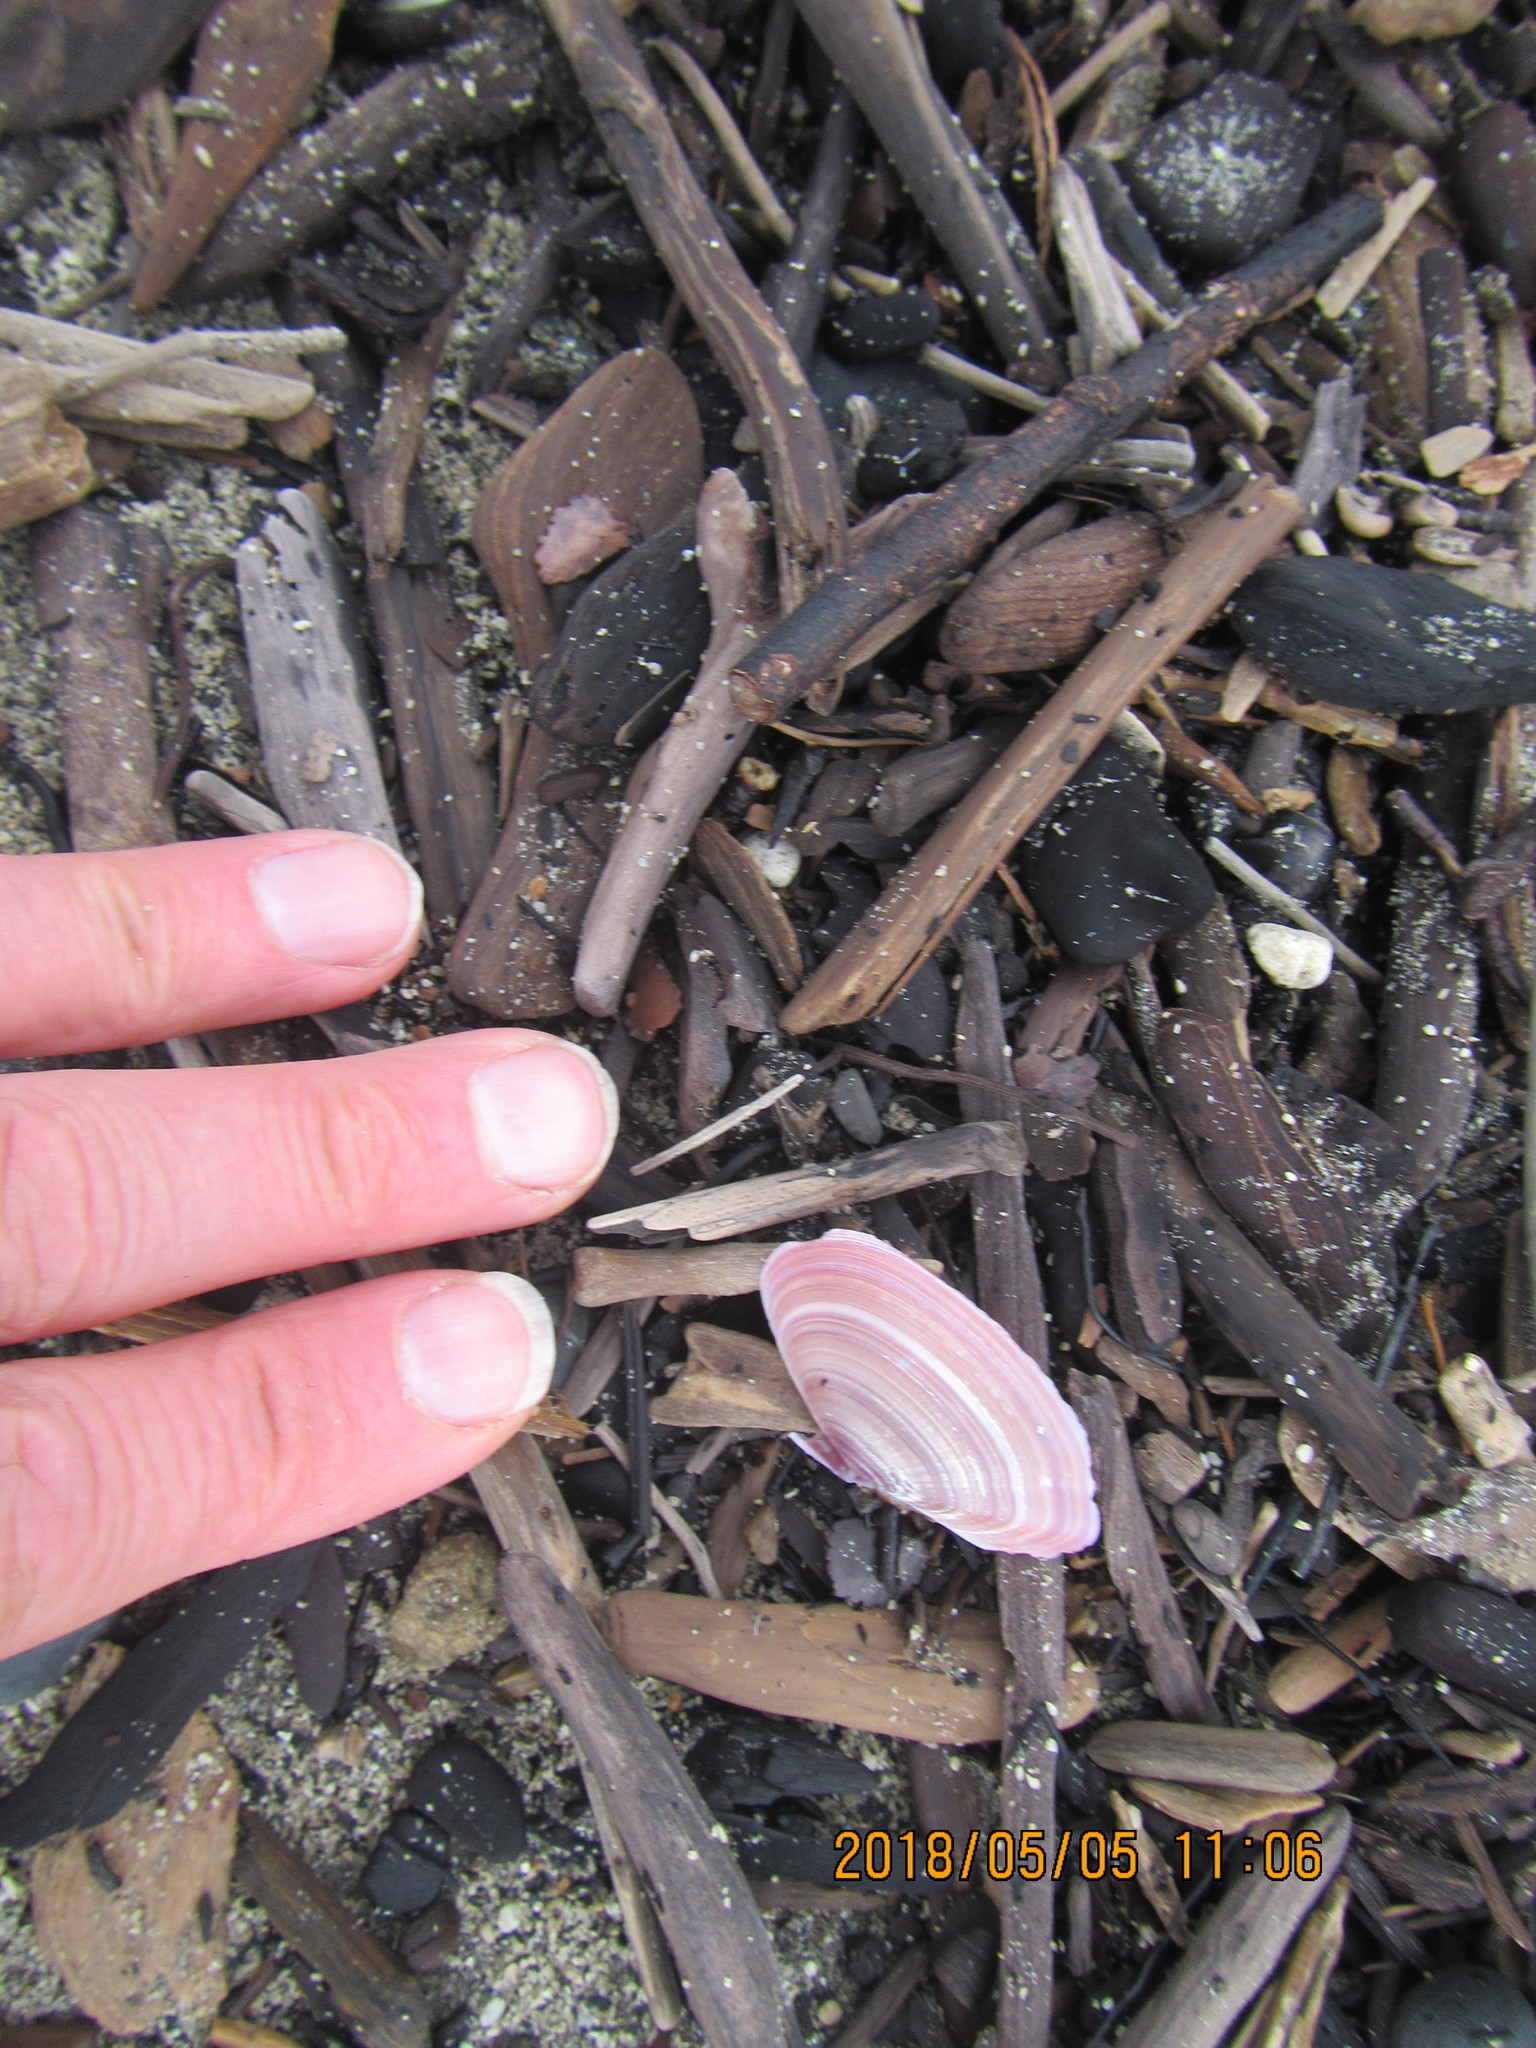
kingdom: Animalia
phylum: Mollusca
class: Bivalvia
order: Cardiida
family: Psammobiidae
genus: Gari
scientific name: Gari lineolata
